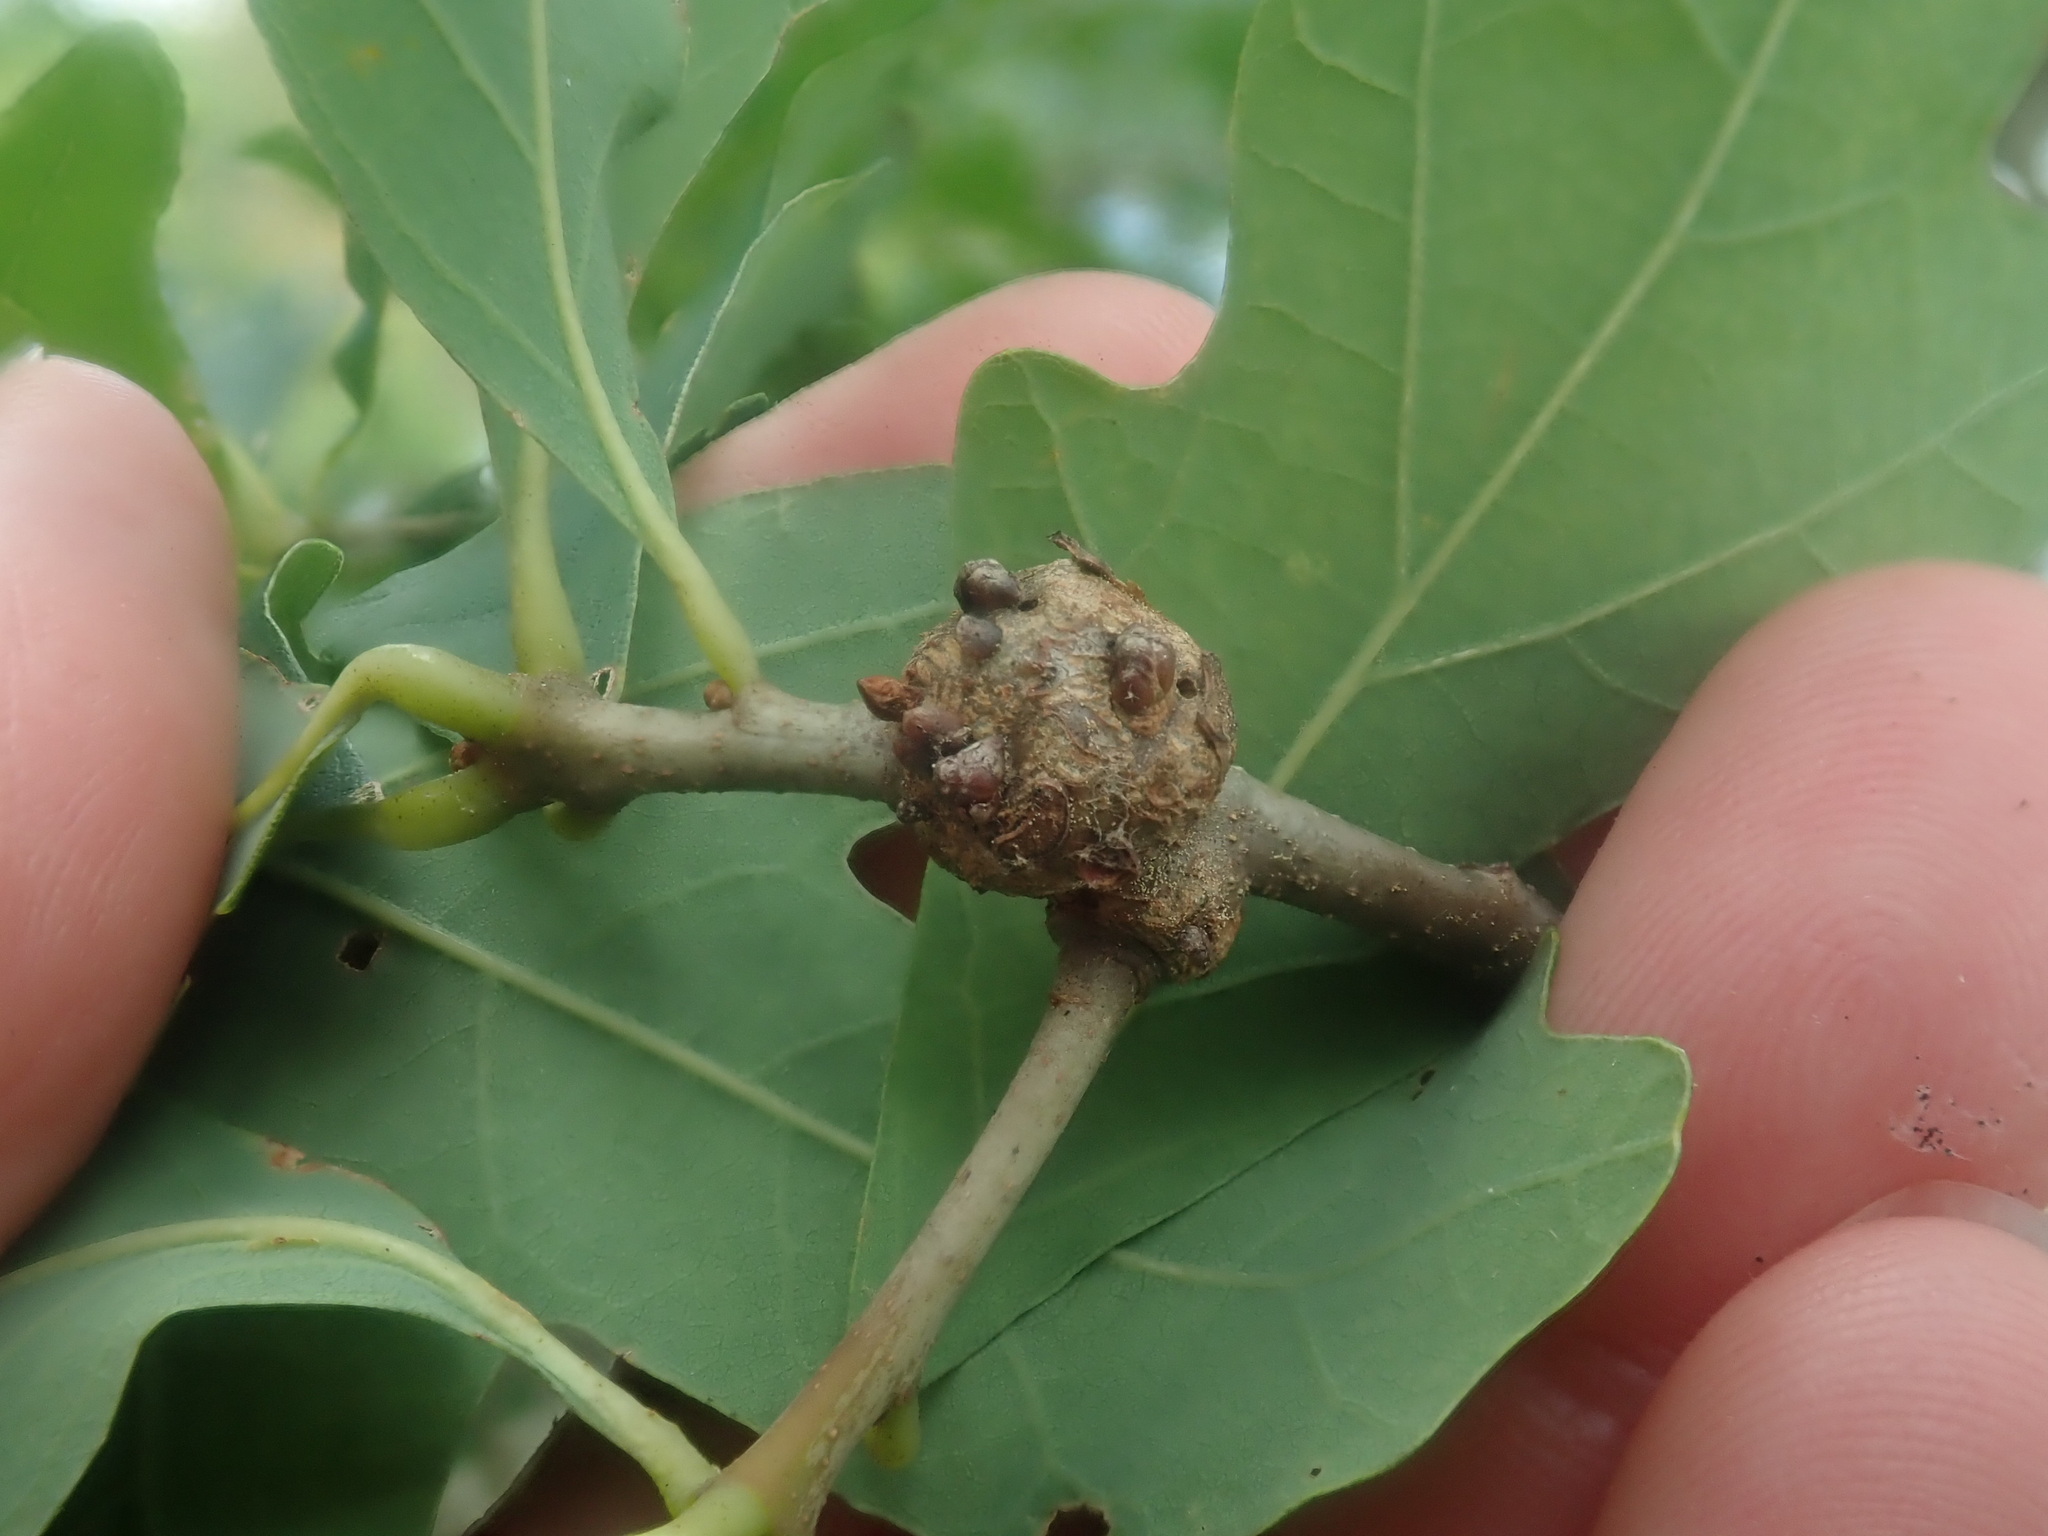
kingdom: Animalia
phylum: Arthropoda
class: Insecta
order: Hymenoptera
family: Cynipidae
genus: Callirhytis
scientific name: Callirhytis clavula
